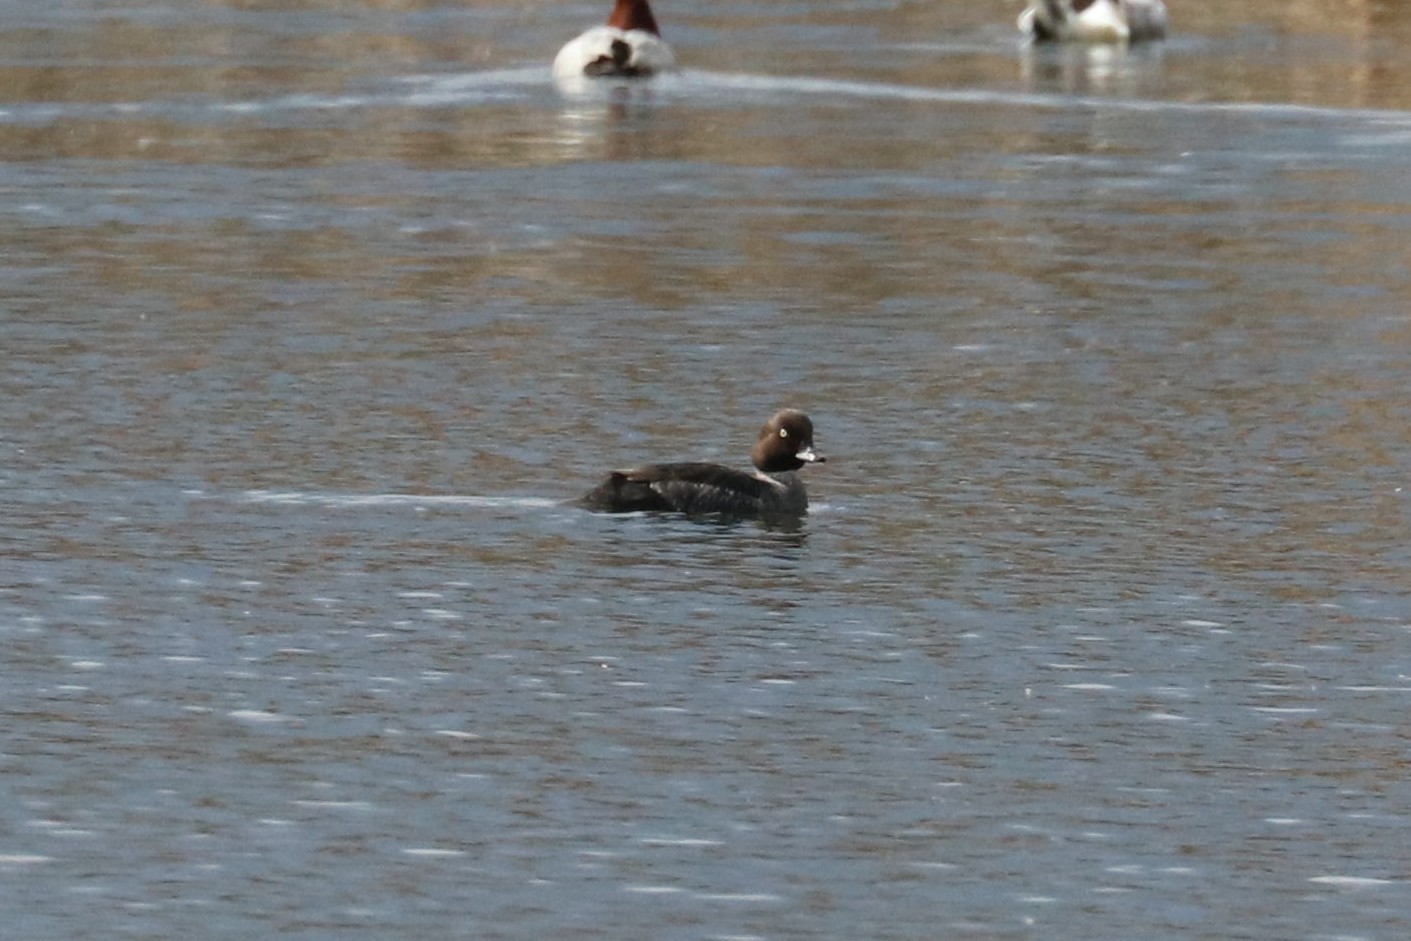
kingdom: Animalia
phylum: Chordata
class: Aves
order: Anseriformes
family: Anatidae
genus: Bucephala
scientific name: Bucephala clangula
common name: Common goldeneye
